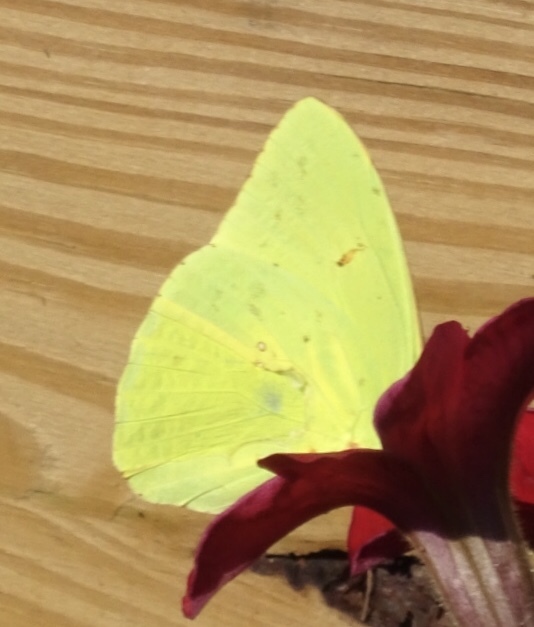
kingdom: Animalia
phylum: Arthropoda
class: Insecta
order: Lepidoptera
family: Pieridae
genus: Phoebis
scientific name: Phoebis sennae
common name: Cloudless sulphur
